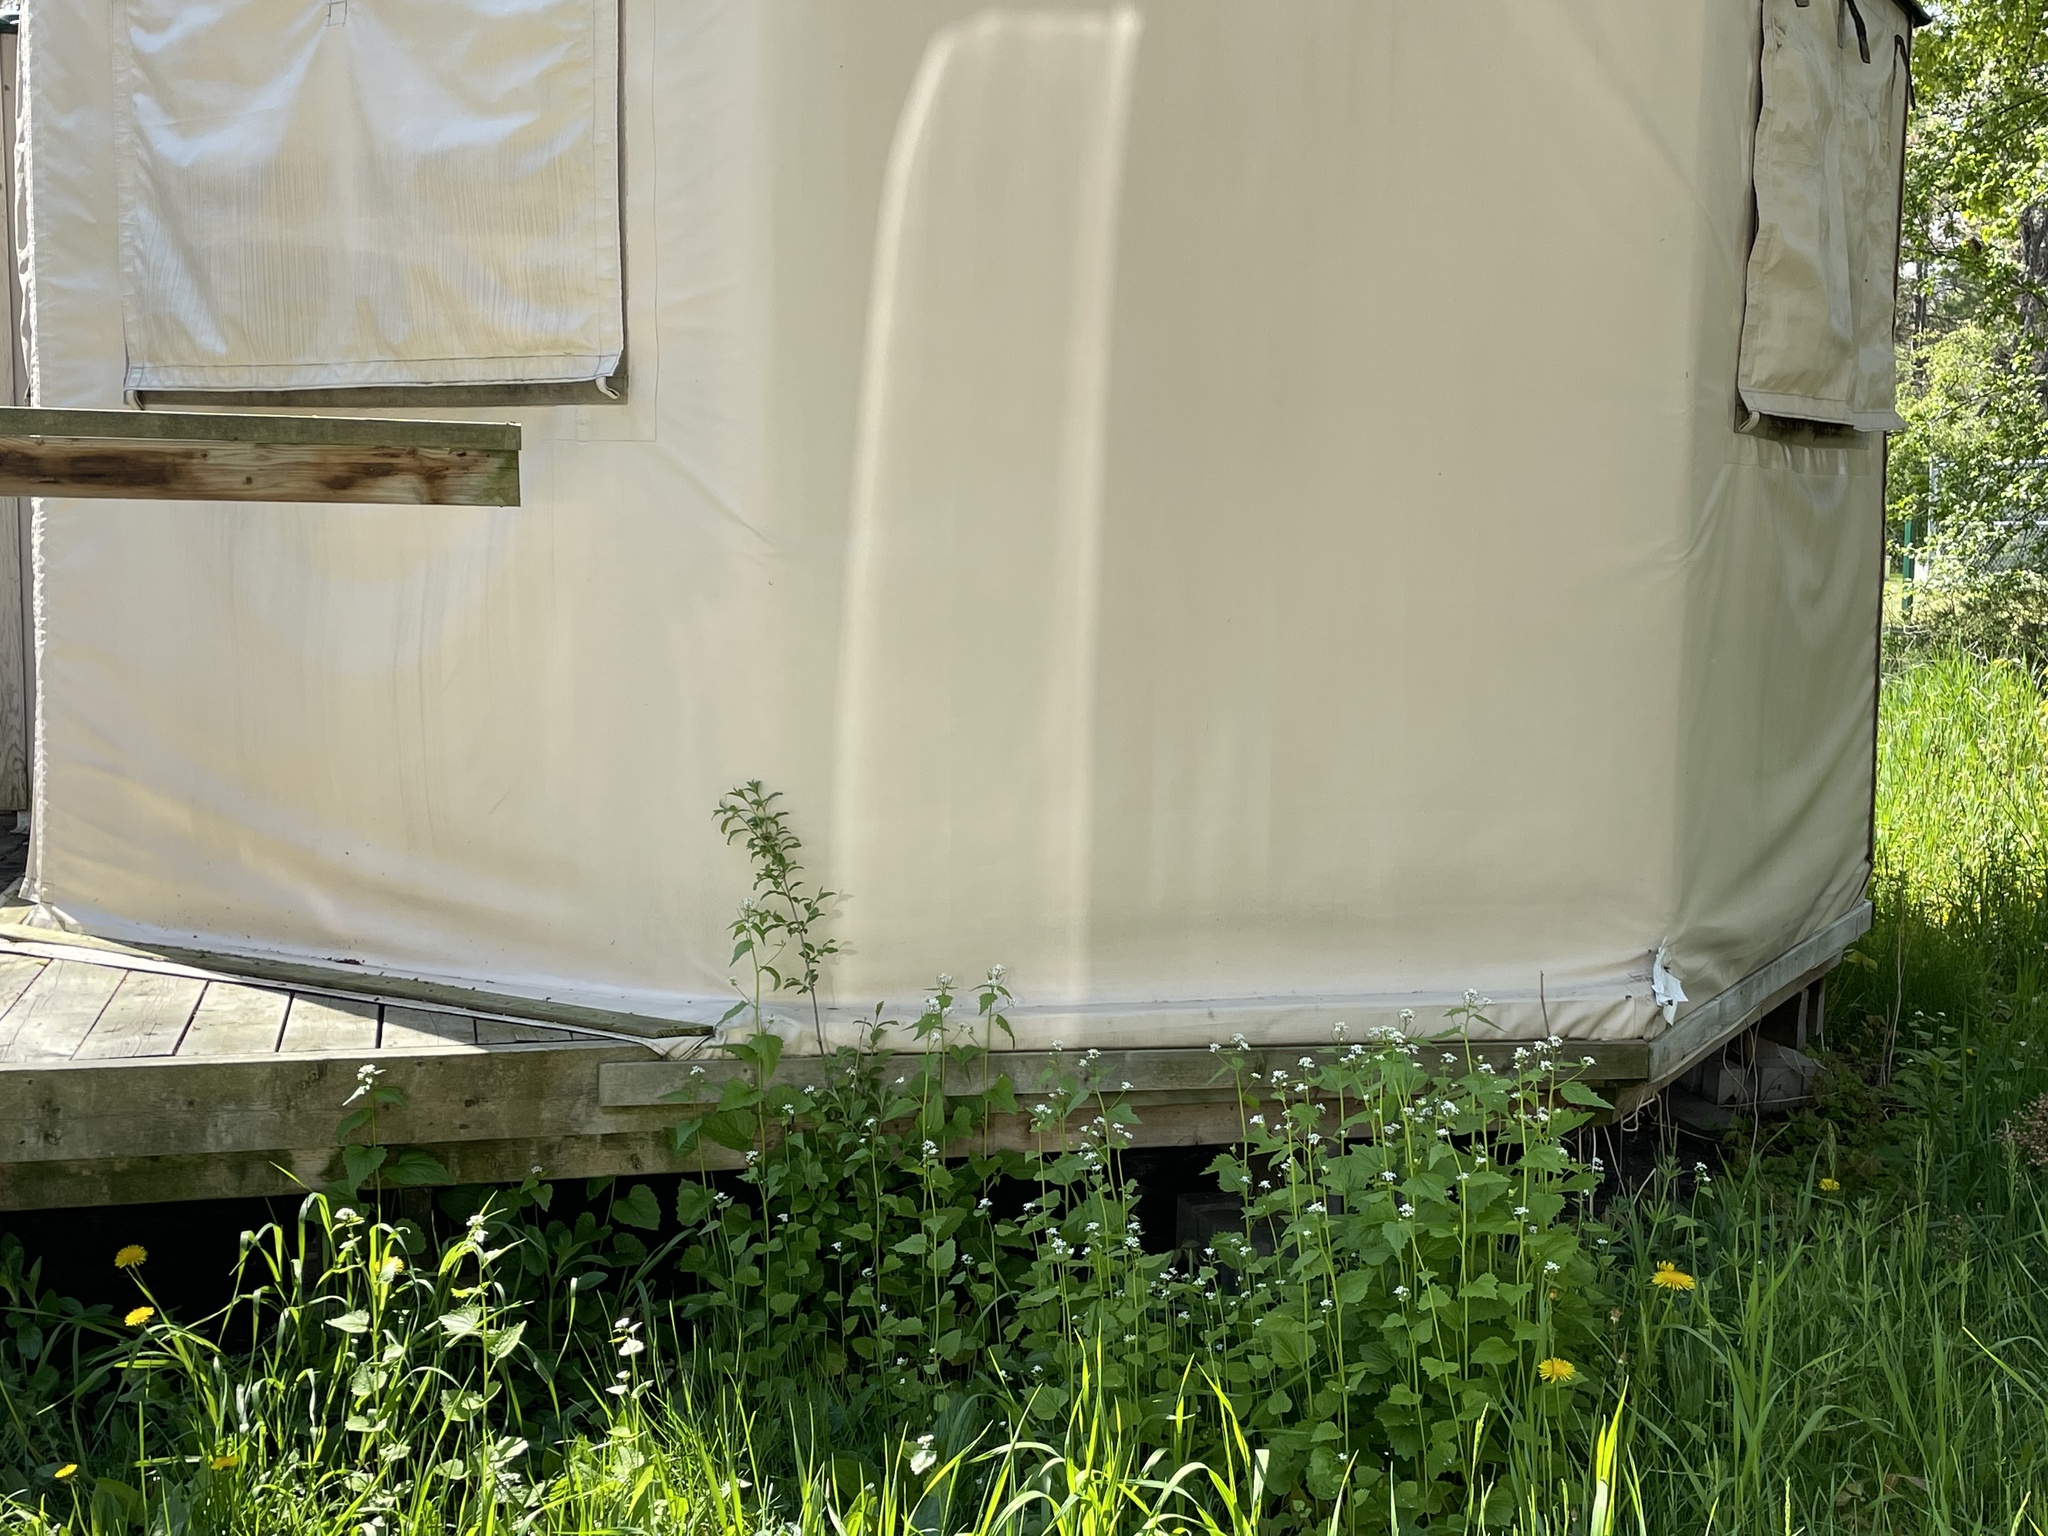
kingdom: Plantae
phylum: Tracheophyta
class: Magnoliopsida
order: Brassicales
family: Brassicaceae
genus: Alliaria
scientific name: Alliaria petiolata
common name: Garlic mustard
